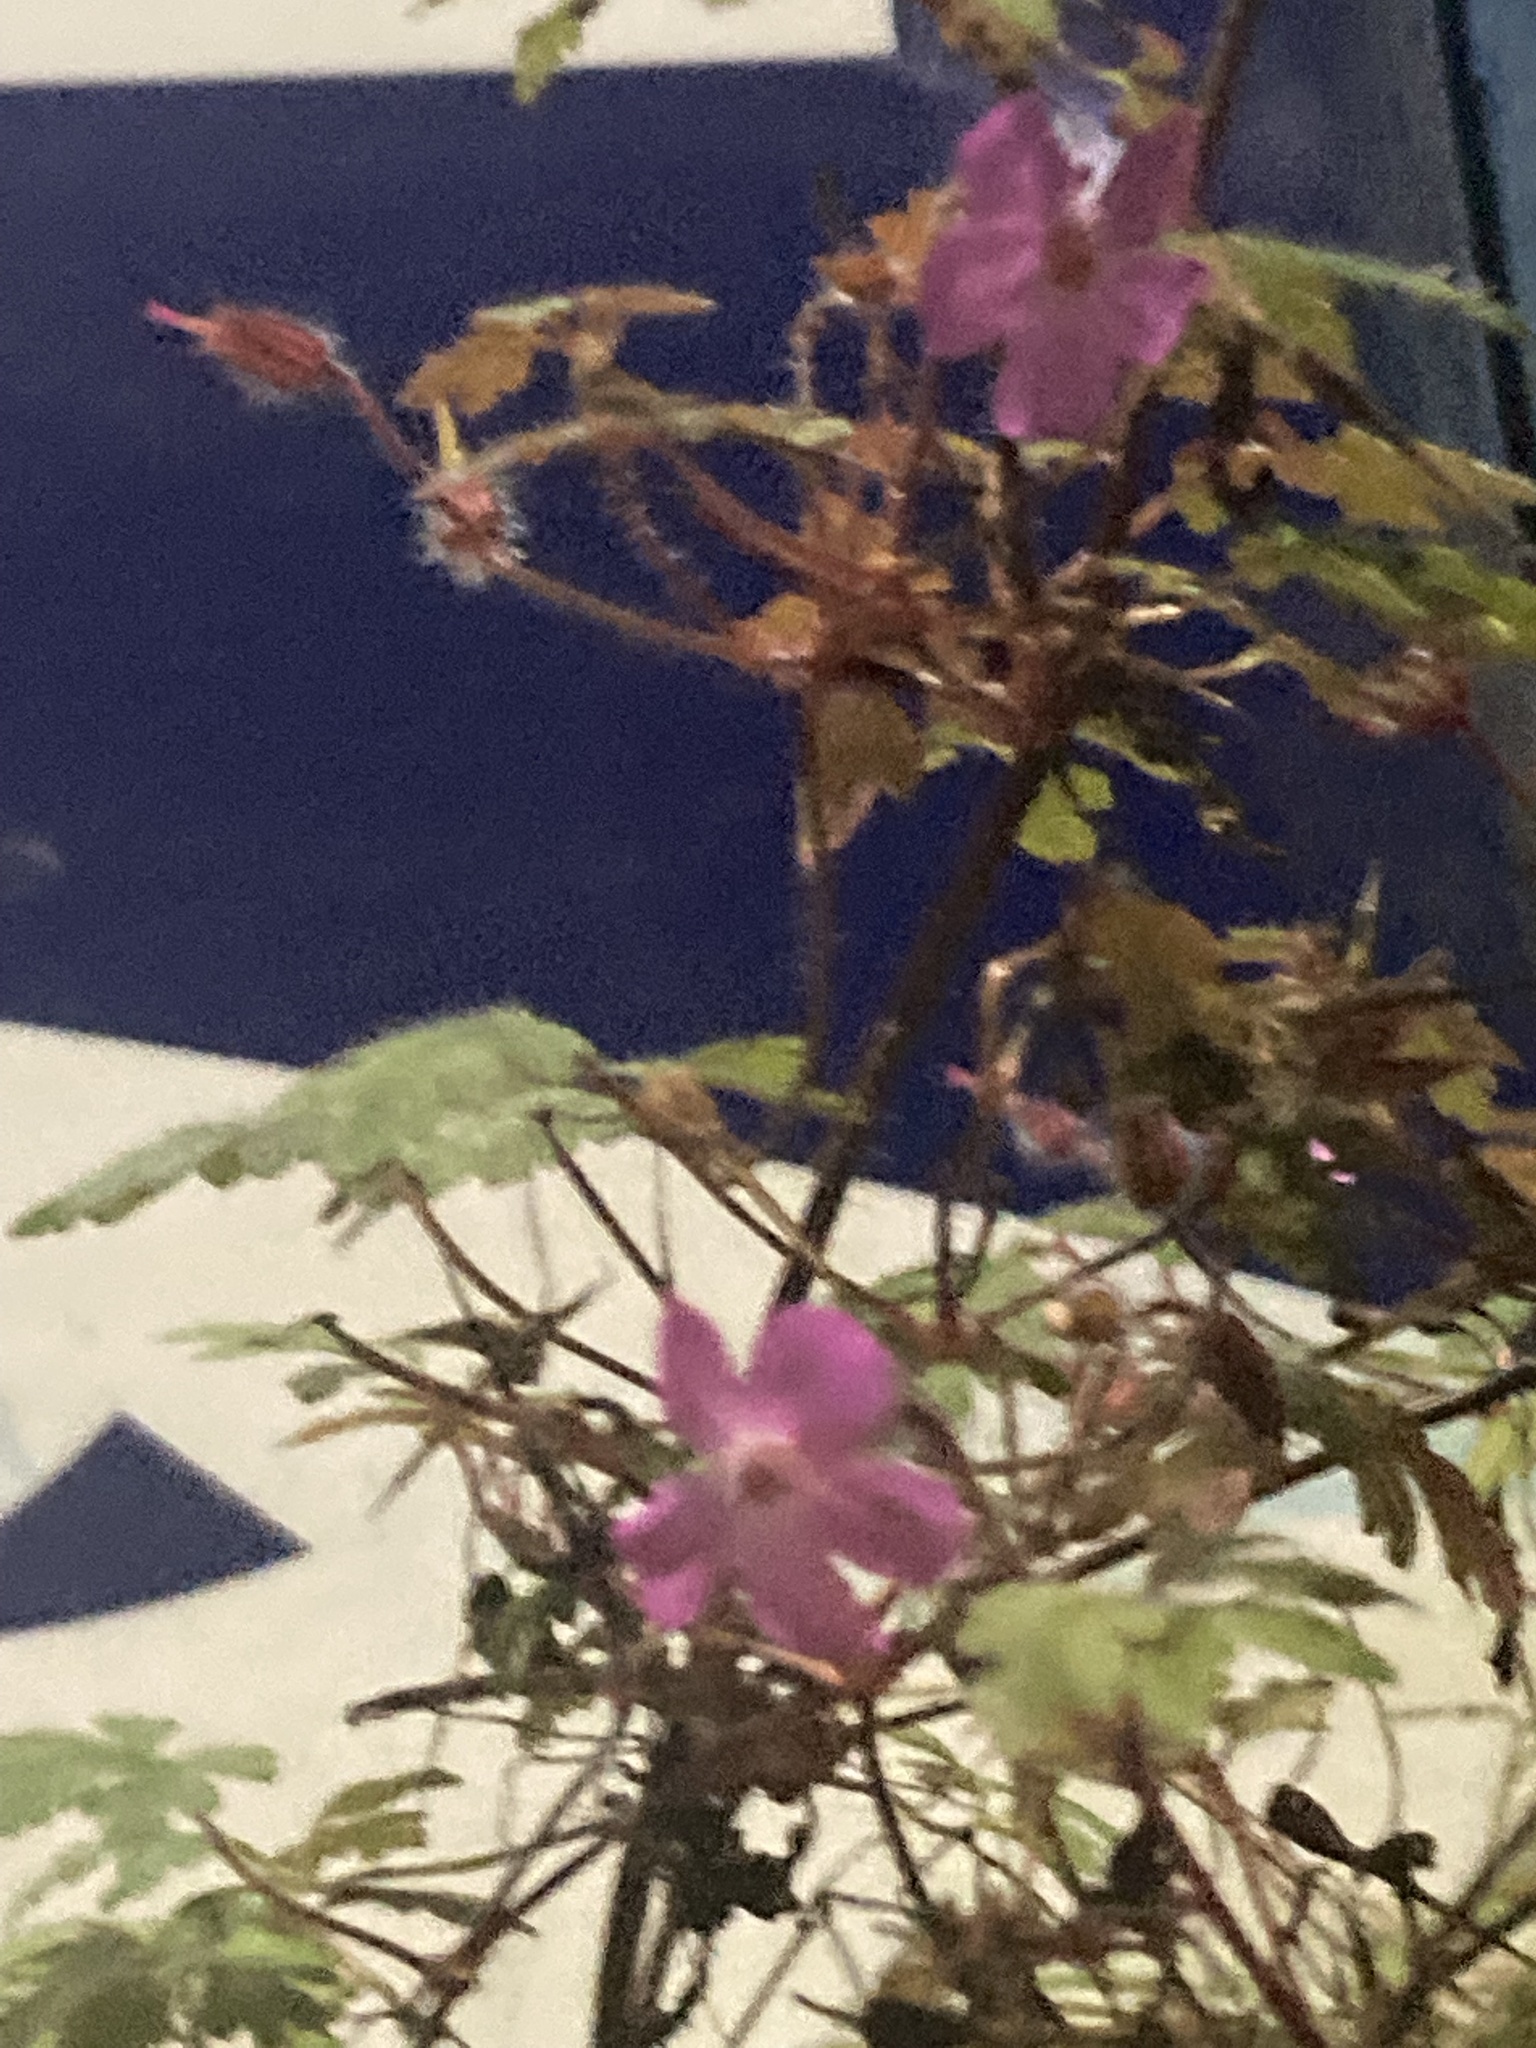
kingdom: Plantae
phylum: Tracheophyta
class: Magnoliopsida
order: Geraniales
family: Geraniaceae
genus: Geranium
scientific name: Geranium robertianum
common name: Herb-robert
